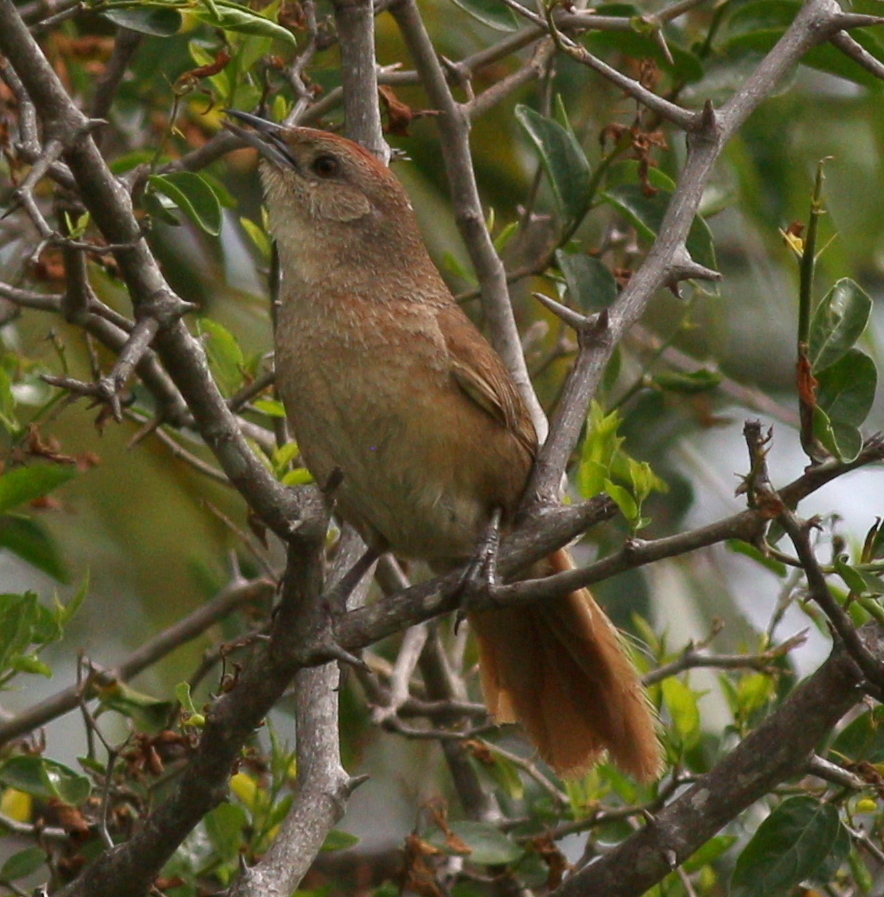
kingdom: Animalia
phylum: Chordata
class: Aves
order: Passeriformes
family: Furnariidae
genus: Phacellodomus
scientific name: Phacellodomus striaticollis
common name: Freckle-breasted thornbird
